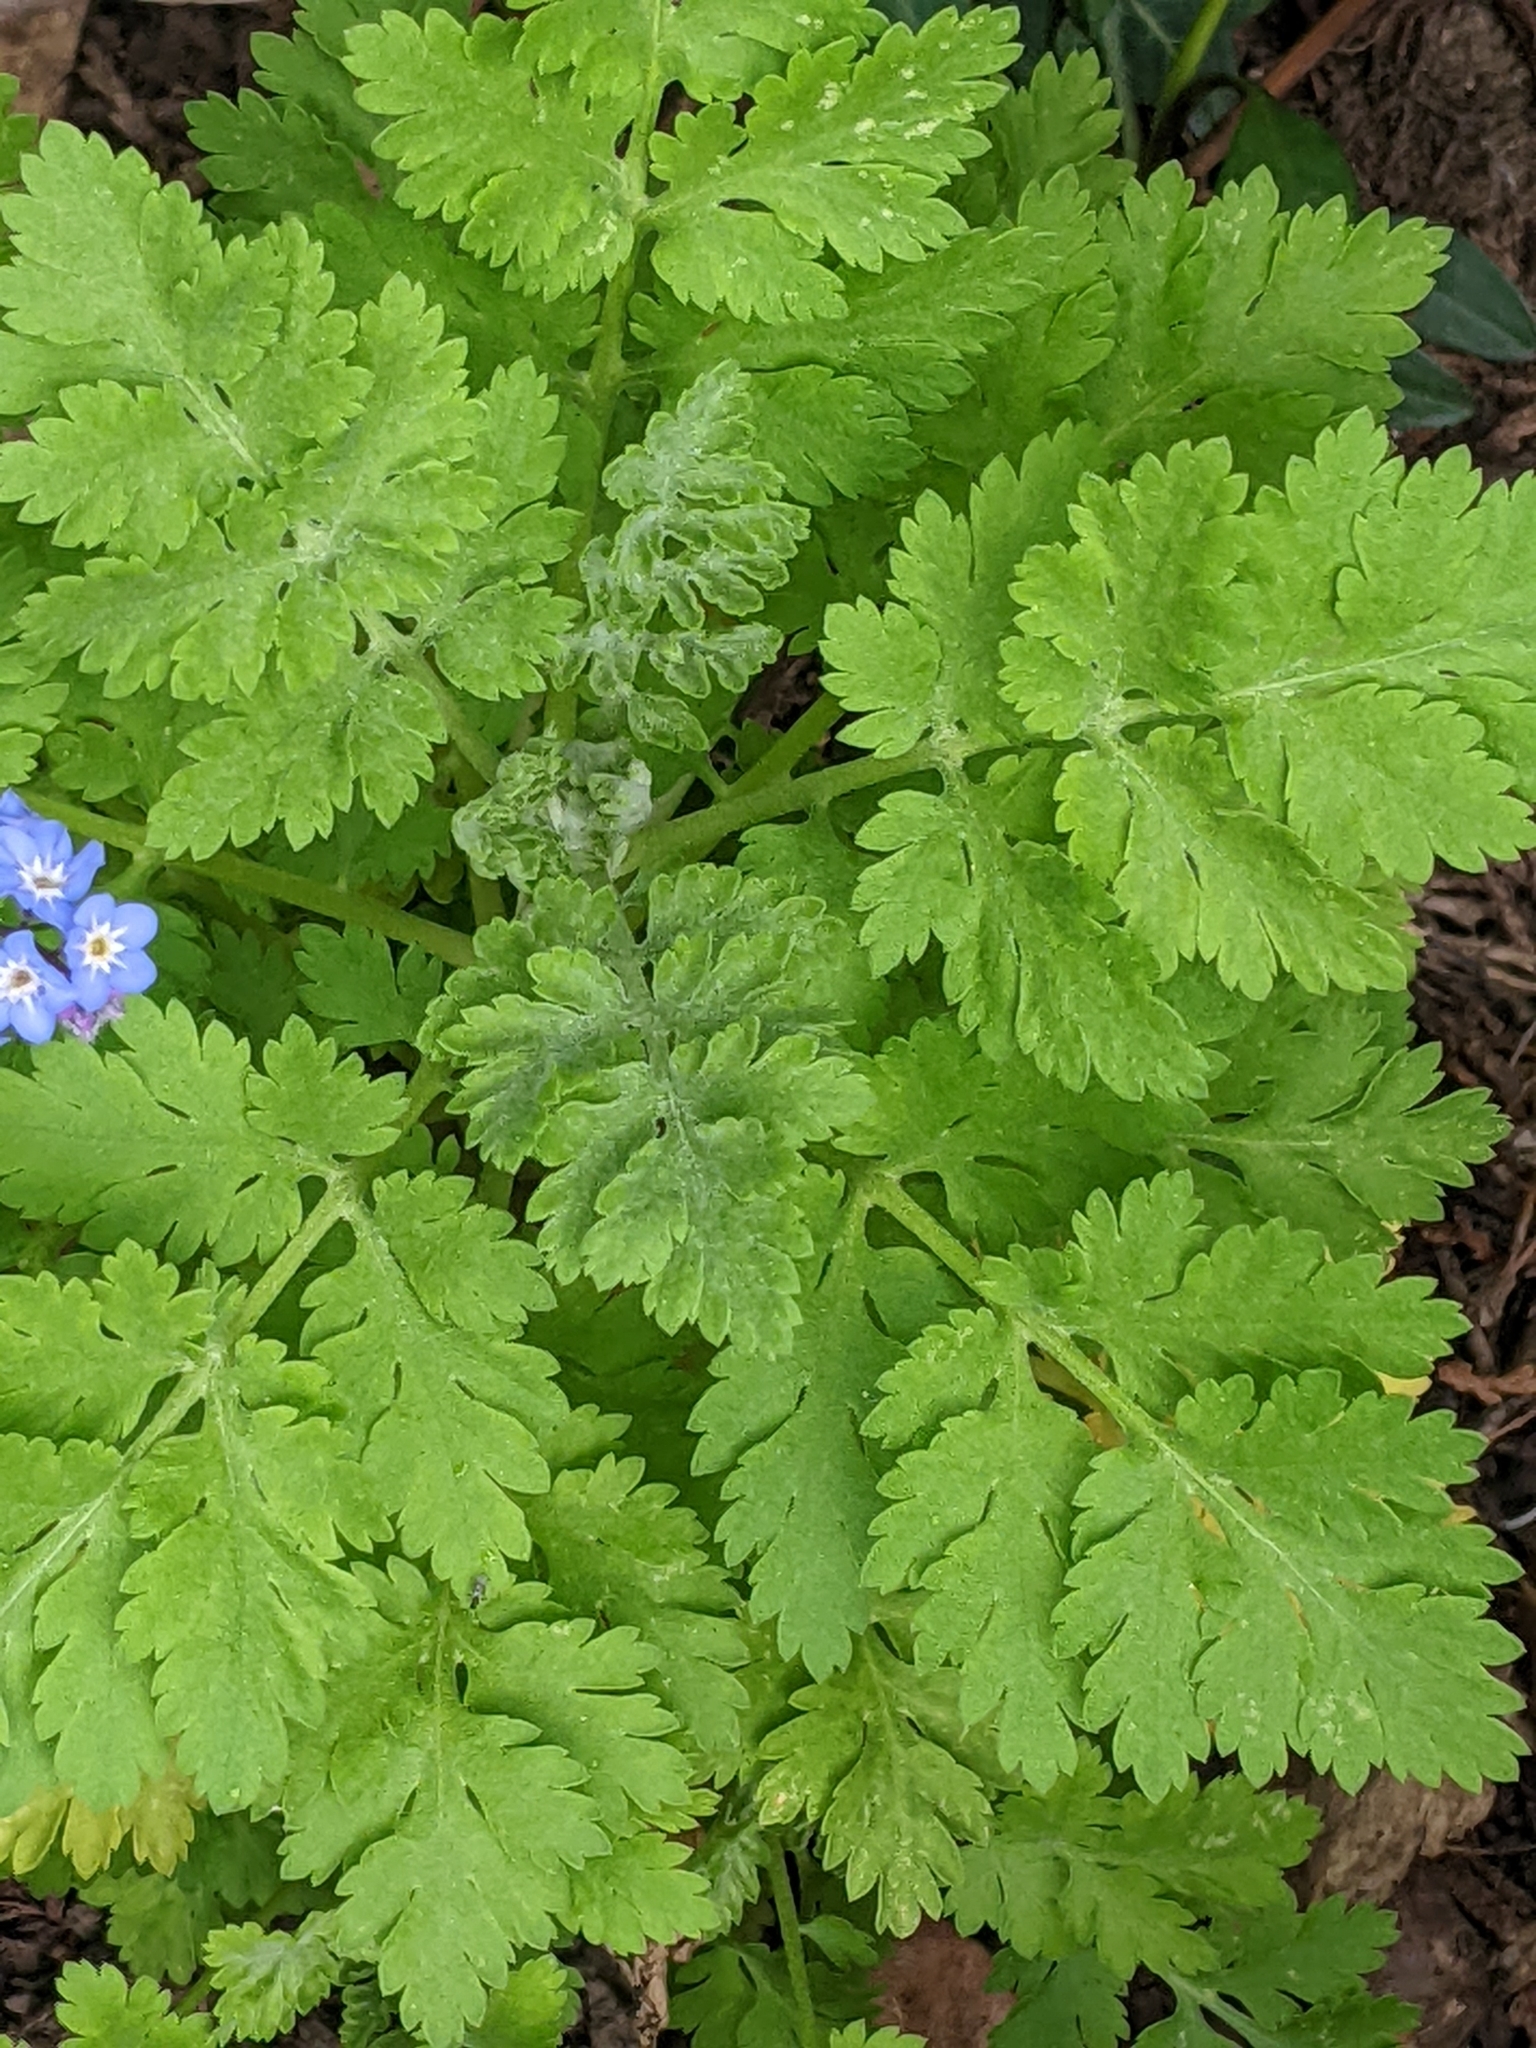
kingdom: Plantae
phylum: Tracheophyta
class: Magnoliopsida
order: Asterales
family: Asteraceae
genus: Tanacetum
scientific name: Tanacetum parthenium
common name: Feverfew
